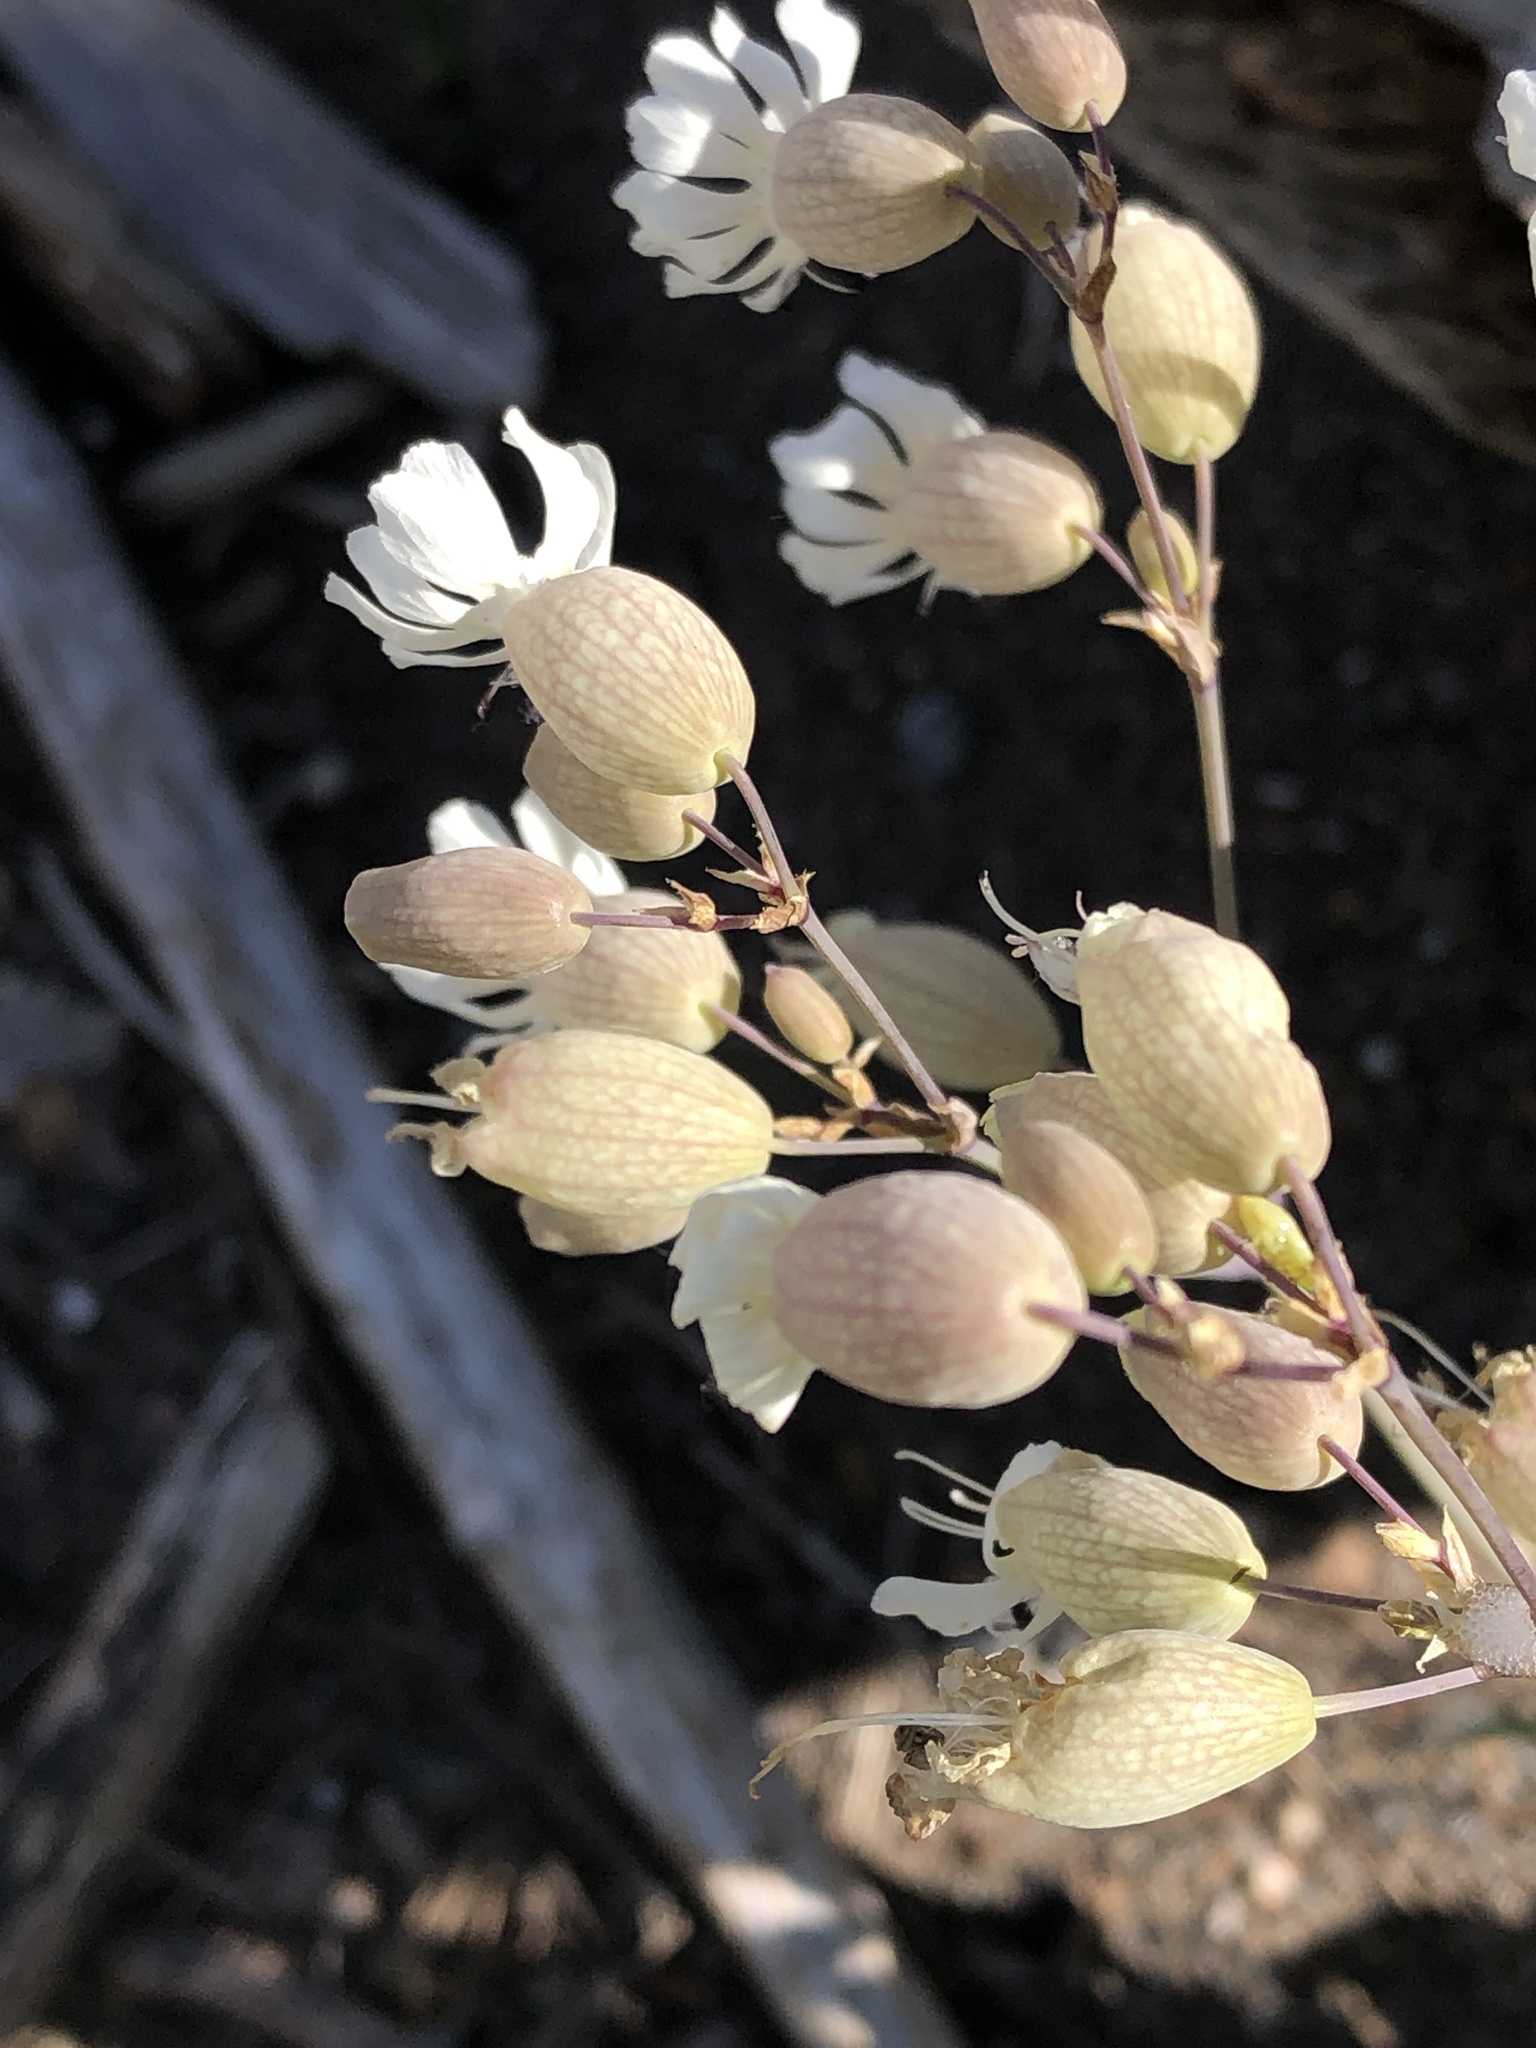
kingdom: Plantae
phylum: Tracheophyta
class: Magnoliopsida
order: Caryophyllales
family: Caryophyllaceae
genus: Silene
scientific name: Silene vulgaris
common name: Bladder campion
